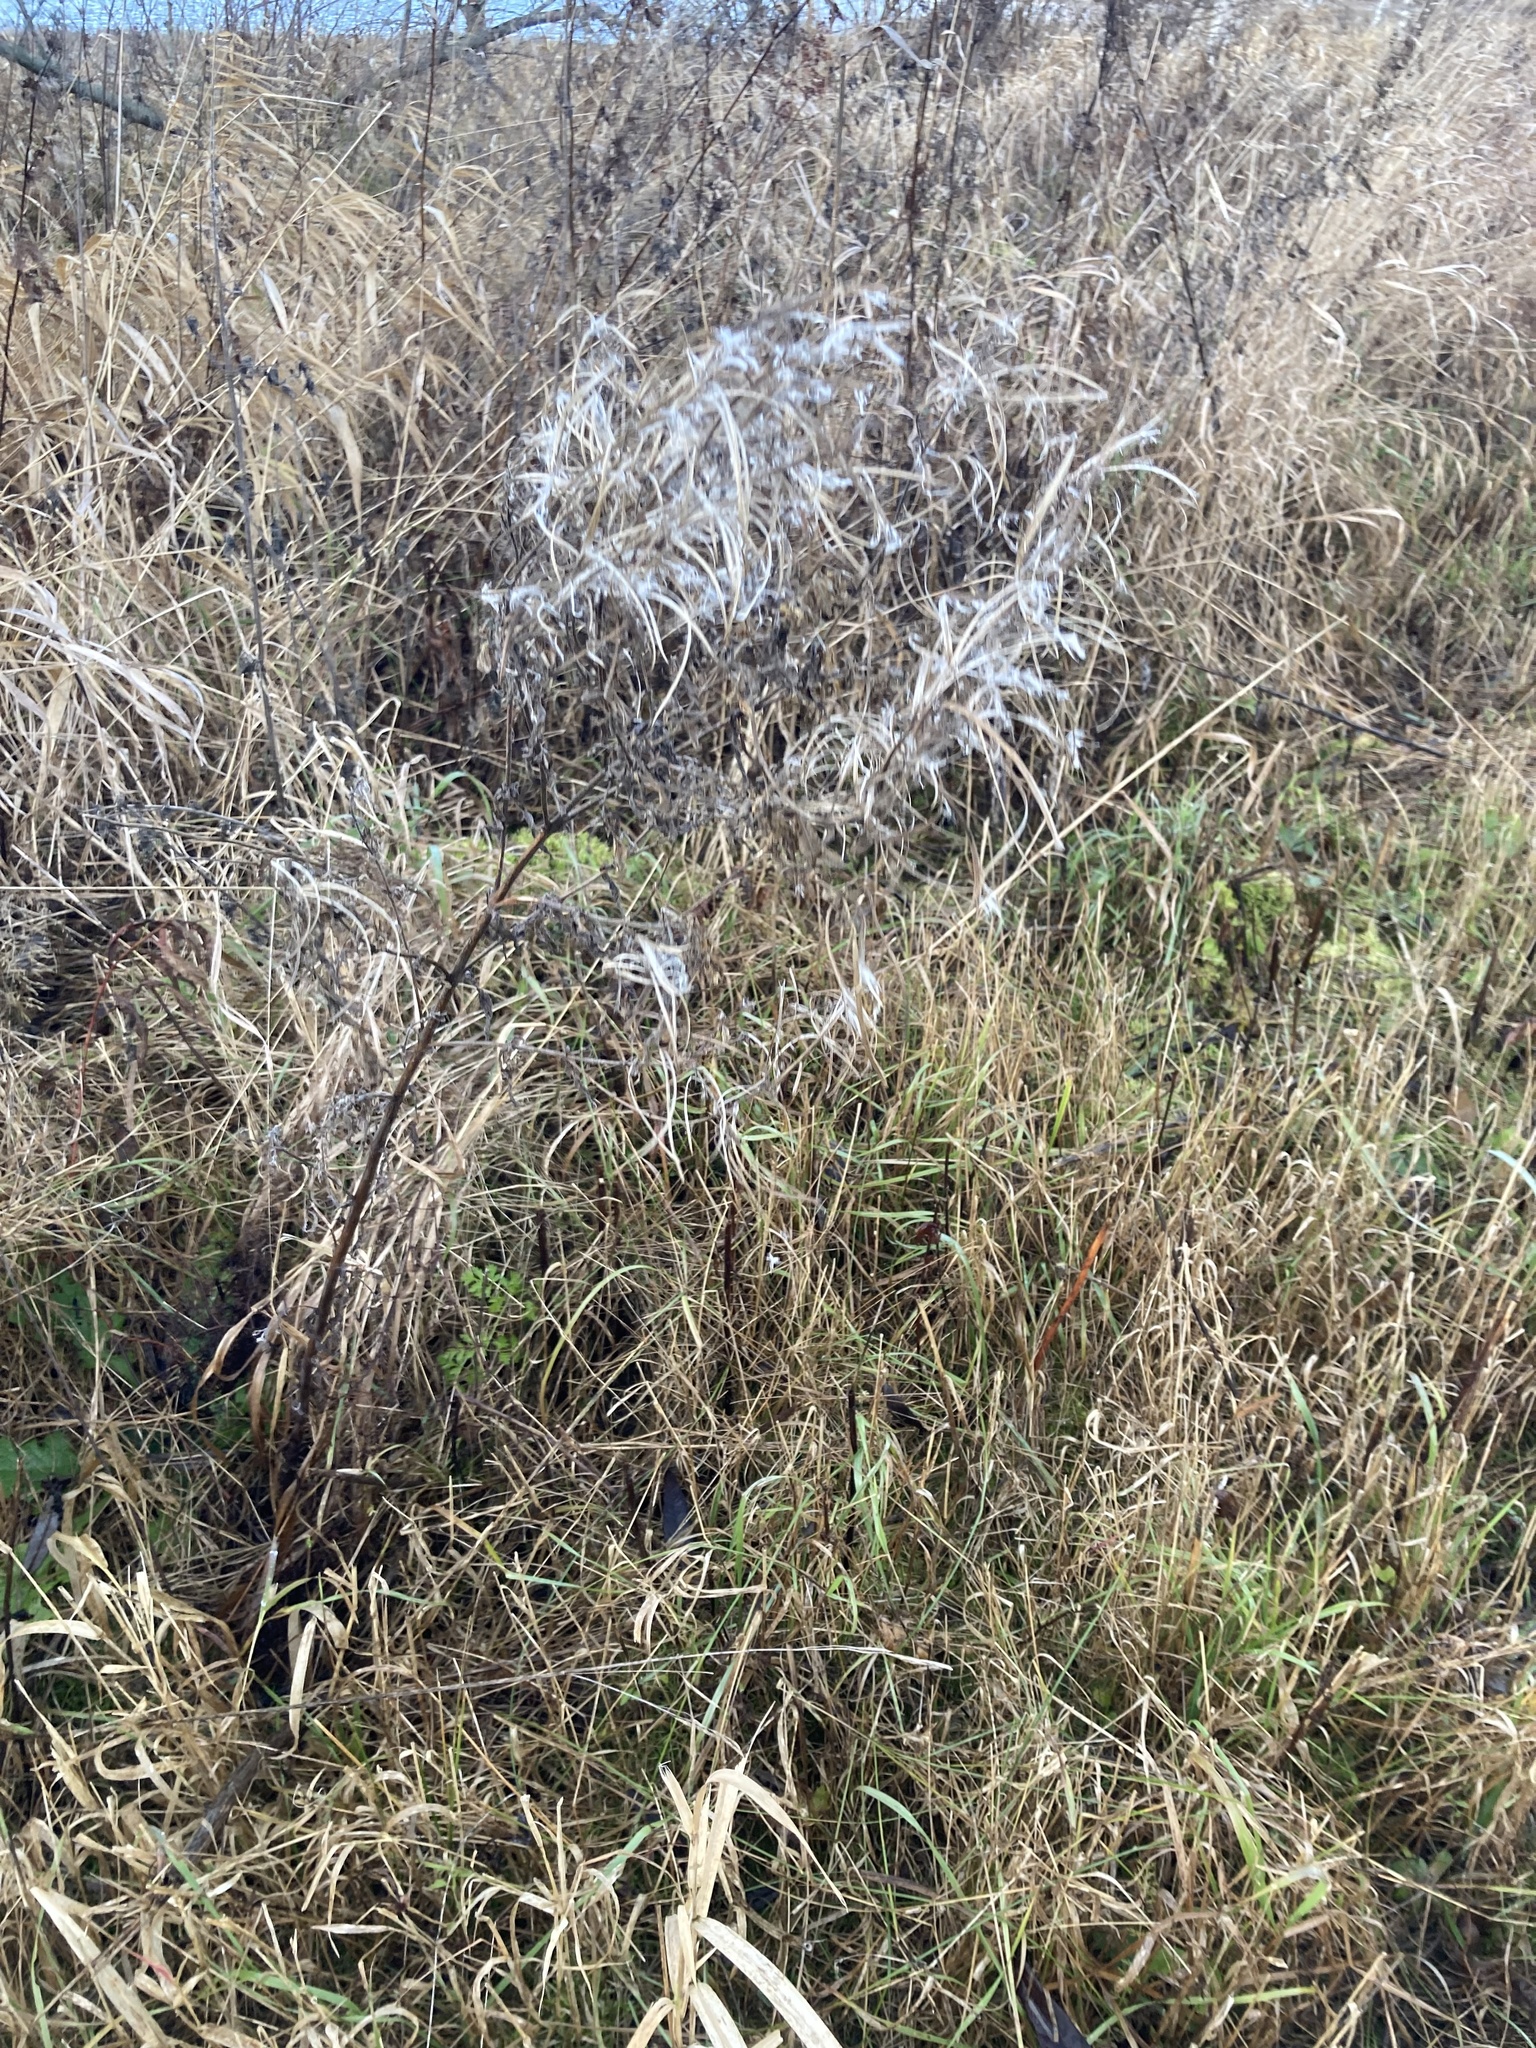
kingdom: Plantae
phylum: Tracheophyta
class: Magnoliopsida
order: Myrtales
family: Onagraceae
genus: Epilobium
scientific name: Epilobium hirsutum
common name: Great willowherb
